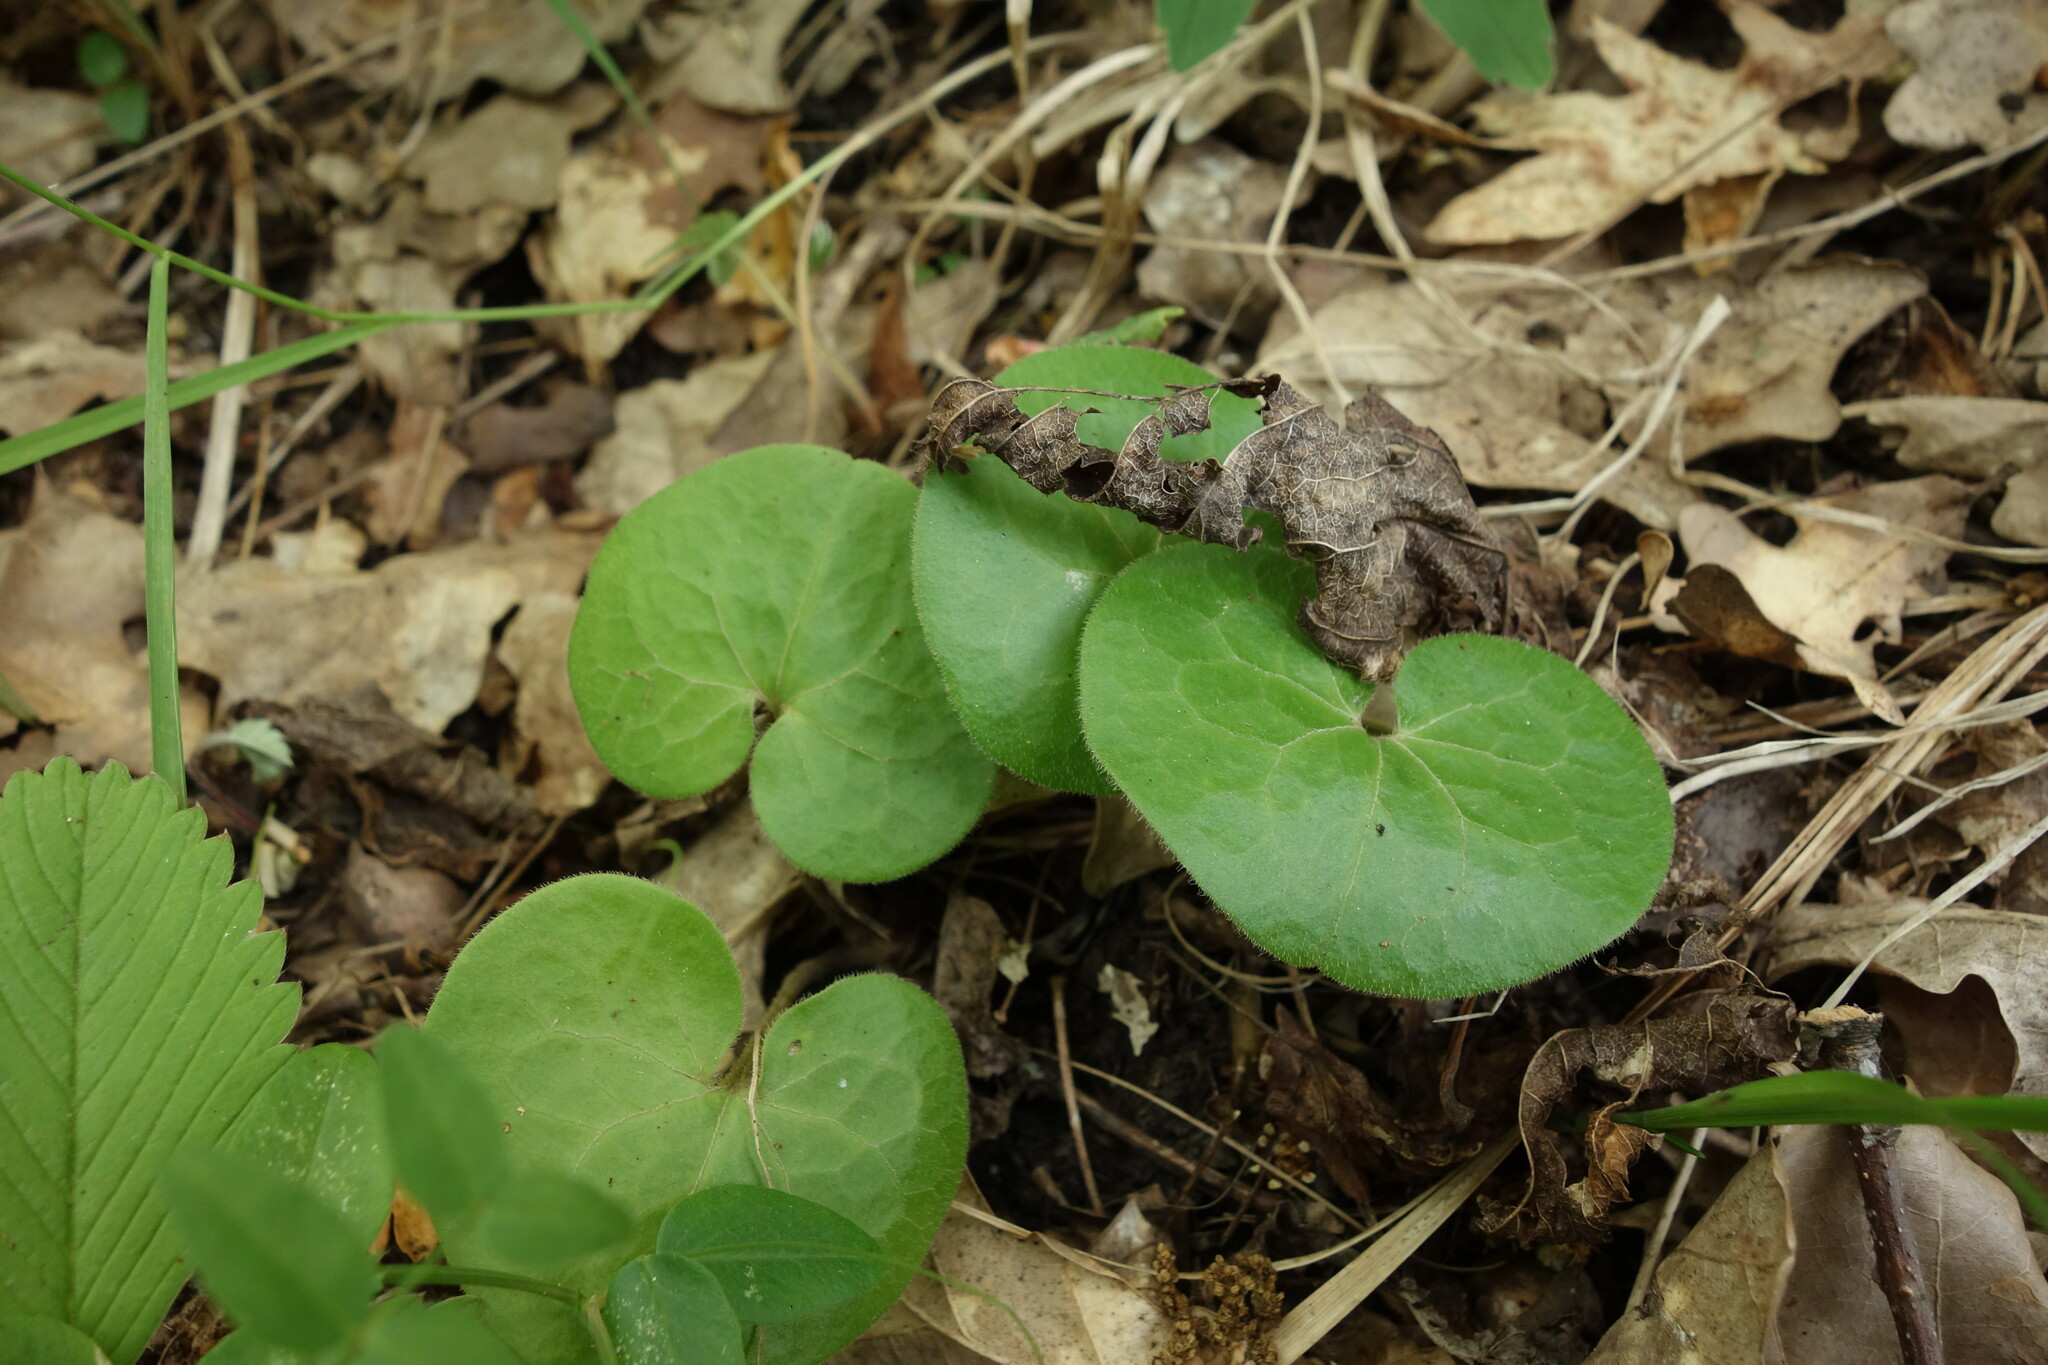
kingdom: Plantae
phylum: Tracheophyta
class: Magnoliopsida
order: Piperales
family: Aristolochiaceae
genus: Asarum
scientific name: Asarum europaeum
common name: Asarabacca
